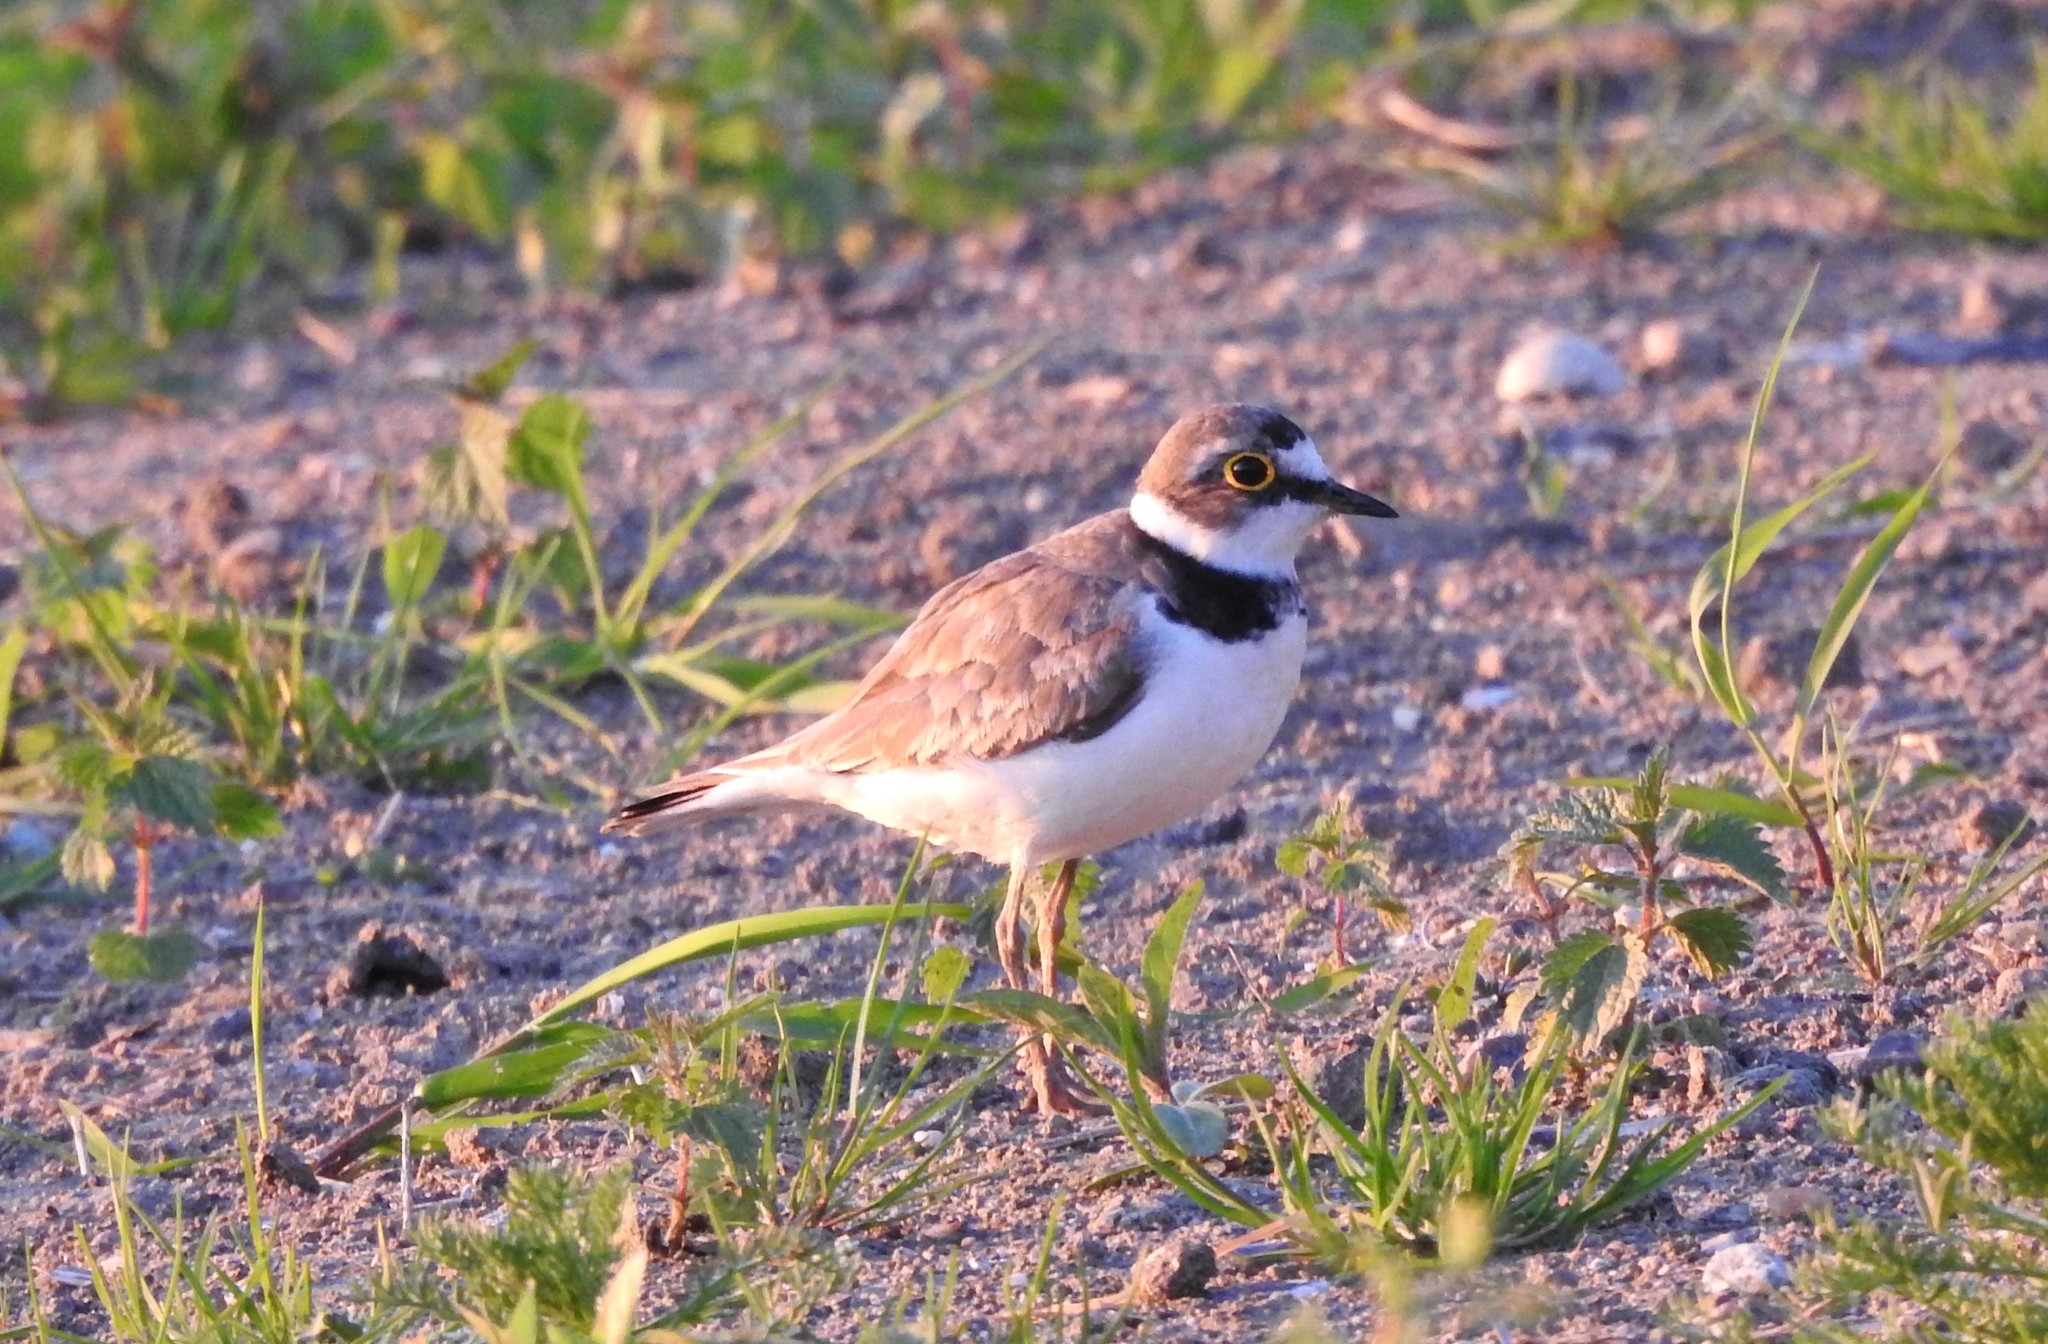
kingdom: Animalia
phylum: Chordata
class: Aves
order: Charadriiformes
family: Charadriidae
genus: Charadrius
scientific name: Charadrius dubius
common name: Little ringed plover
